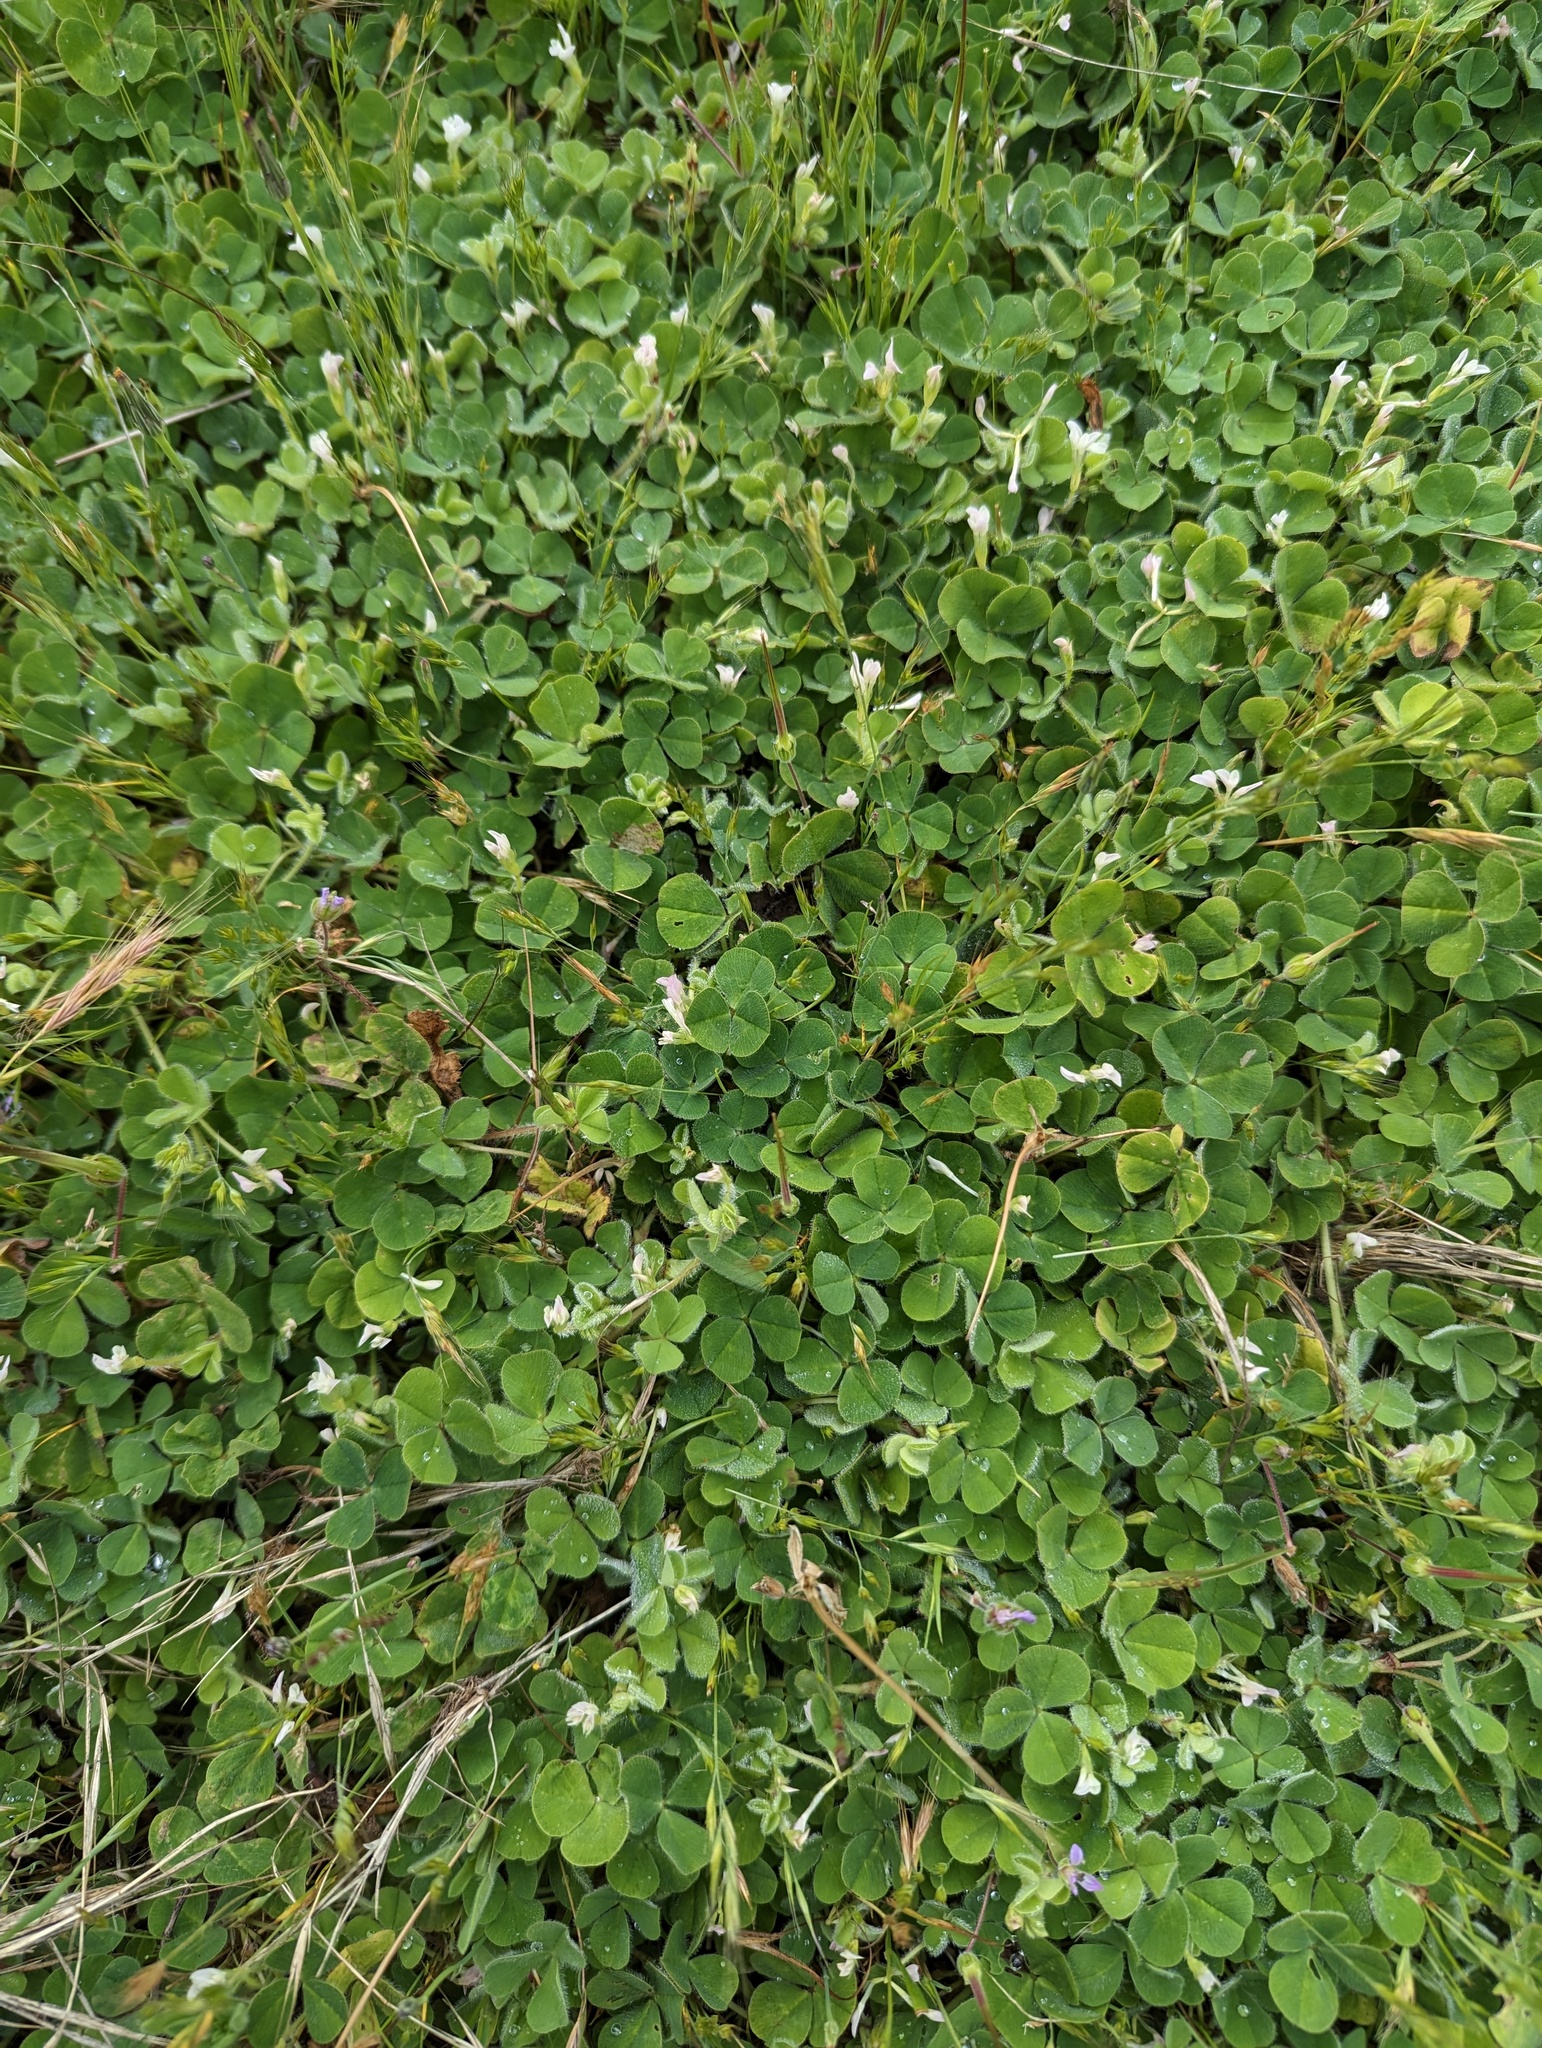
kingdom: Plantae
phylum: Tracheophyta
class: Magnoliopsida
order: Fabales
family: Fabaceae
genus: Trifolium
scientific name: Trifolium subterraneum
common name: Subterranean clover
